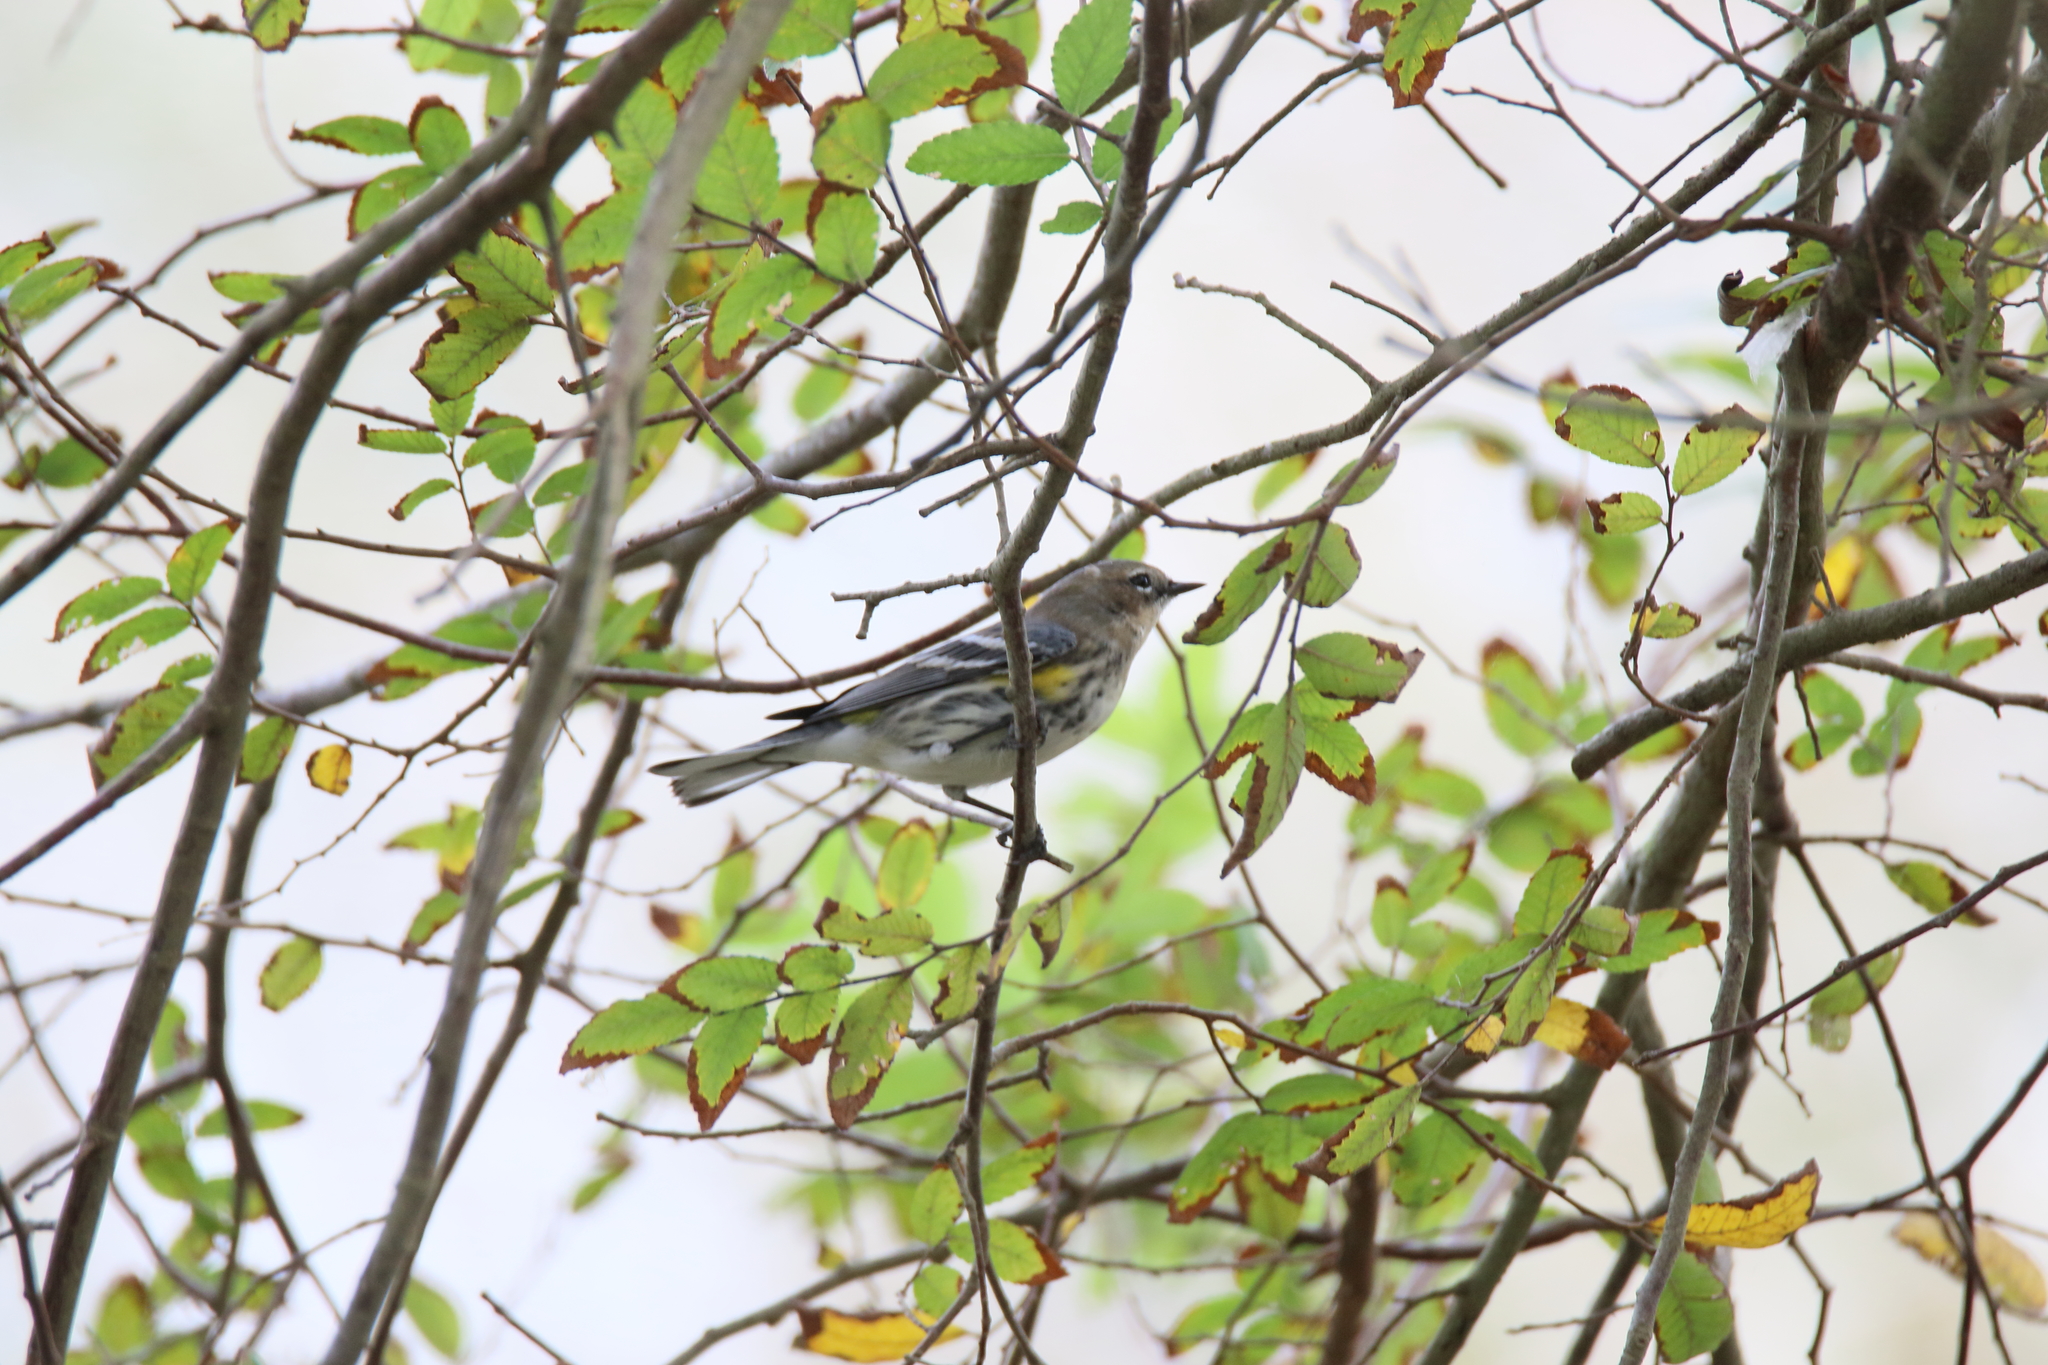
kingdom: Animalia
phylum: Chordata
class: Aves
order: Passeriformes
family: Parulidae
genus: Setophaga
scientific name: Setophaga coronata
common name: Myrtle warbler
